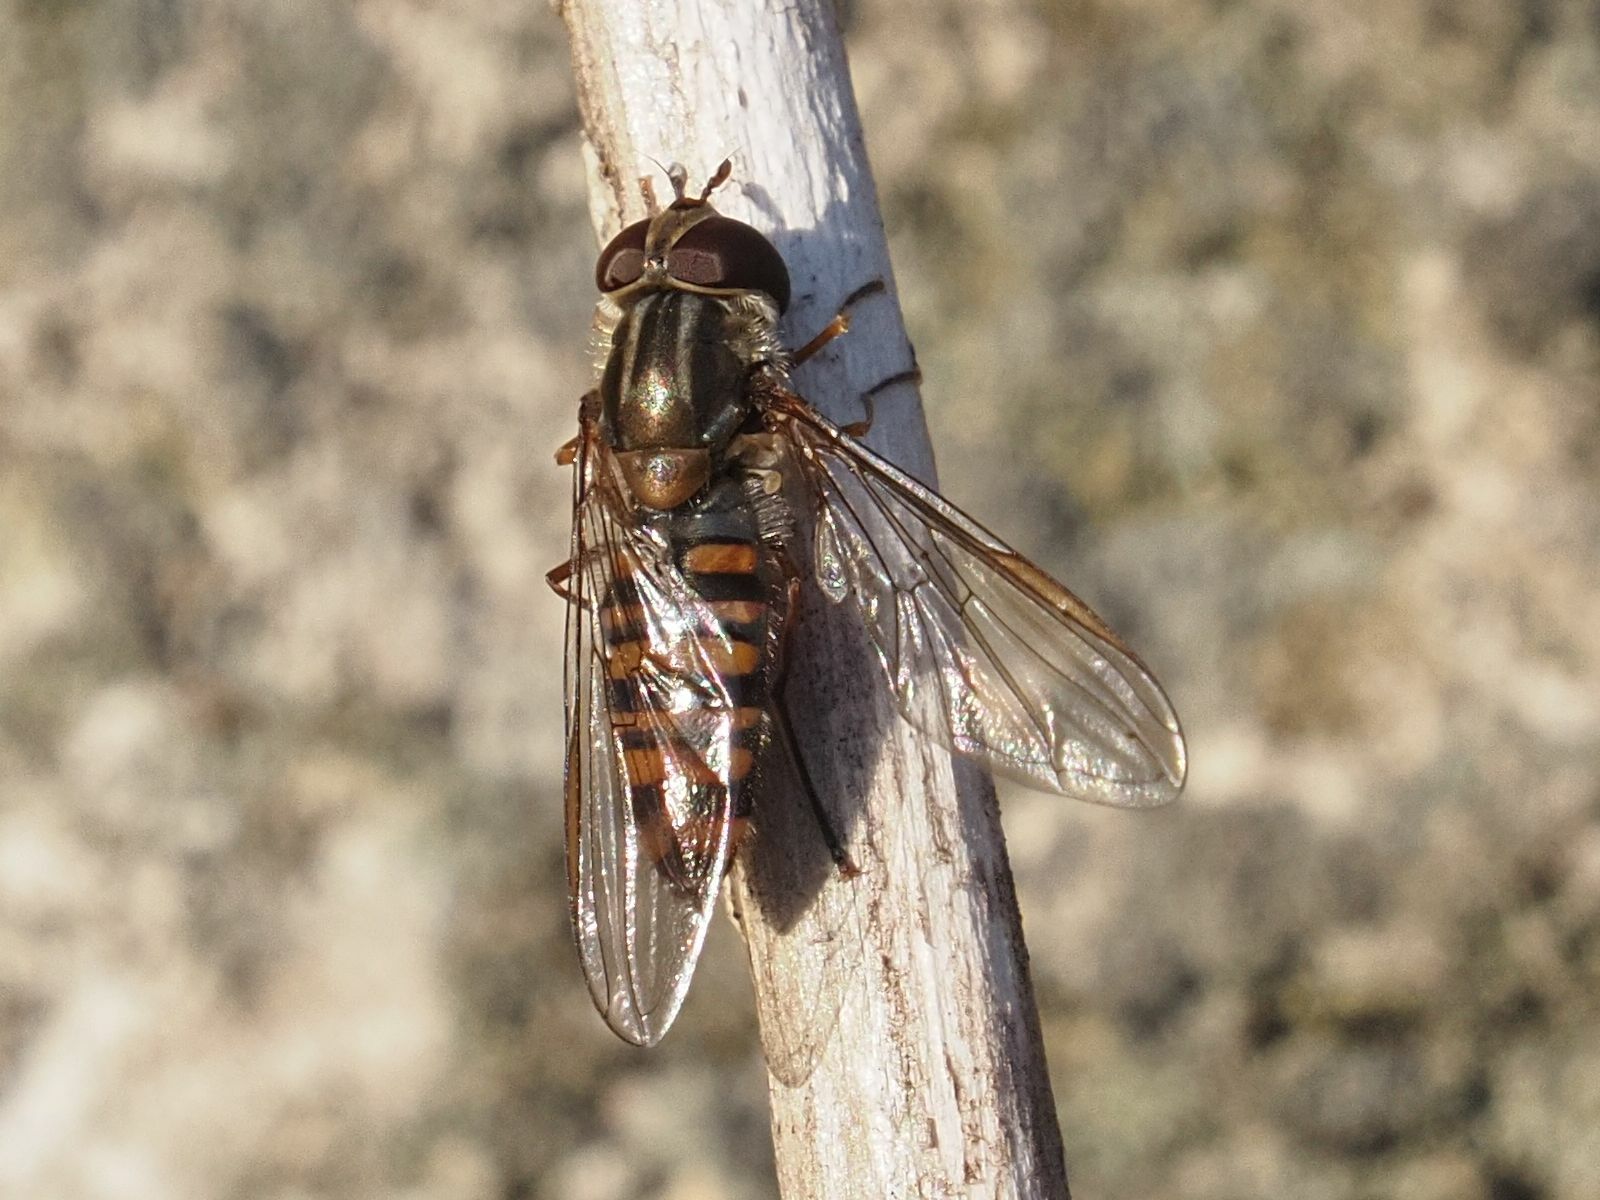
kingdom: Animalia
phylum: Arthropoda
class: Insecta
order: Diptera
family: Syrphidae
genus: Episyrphus
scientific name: Episyrphus balteatus
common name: Marmalade hoverfly
